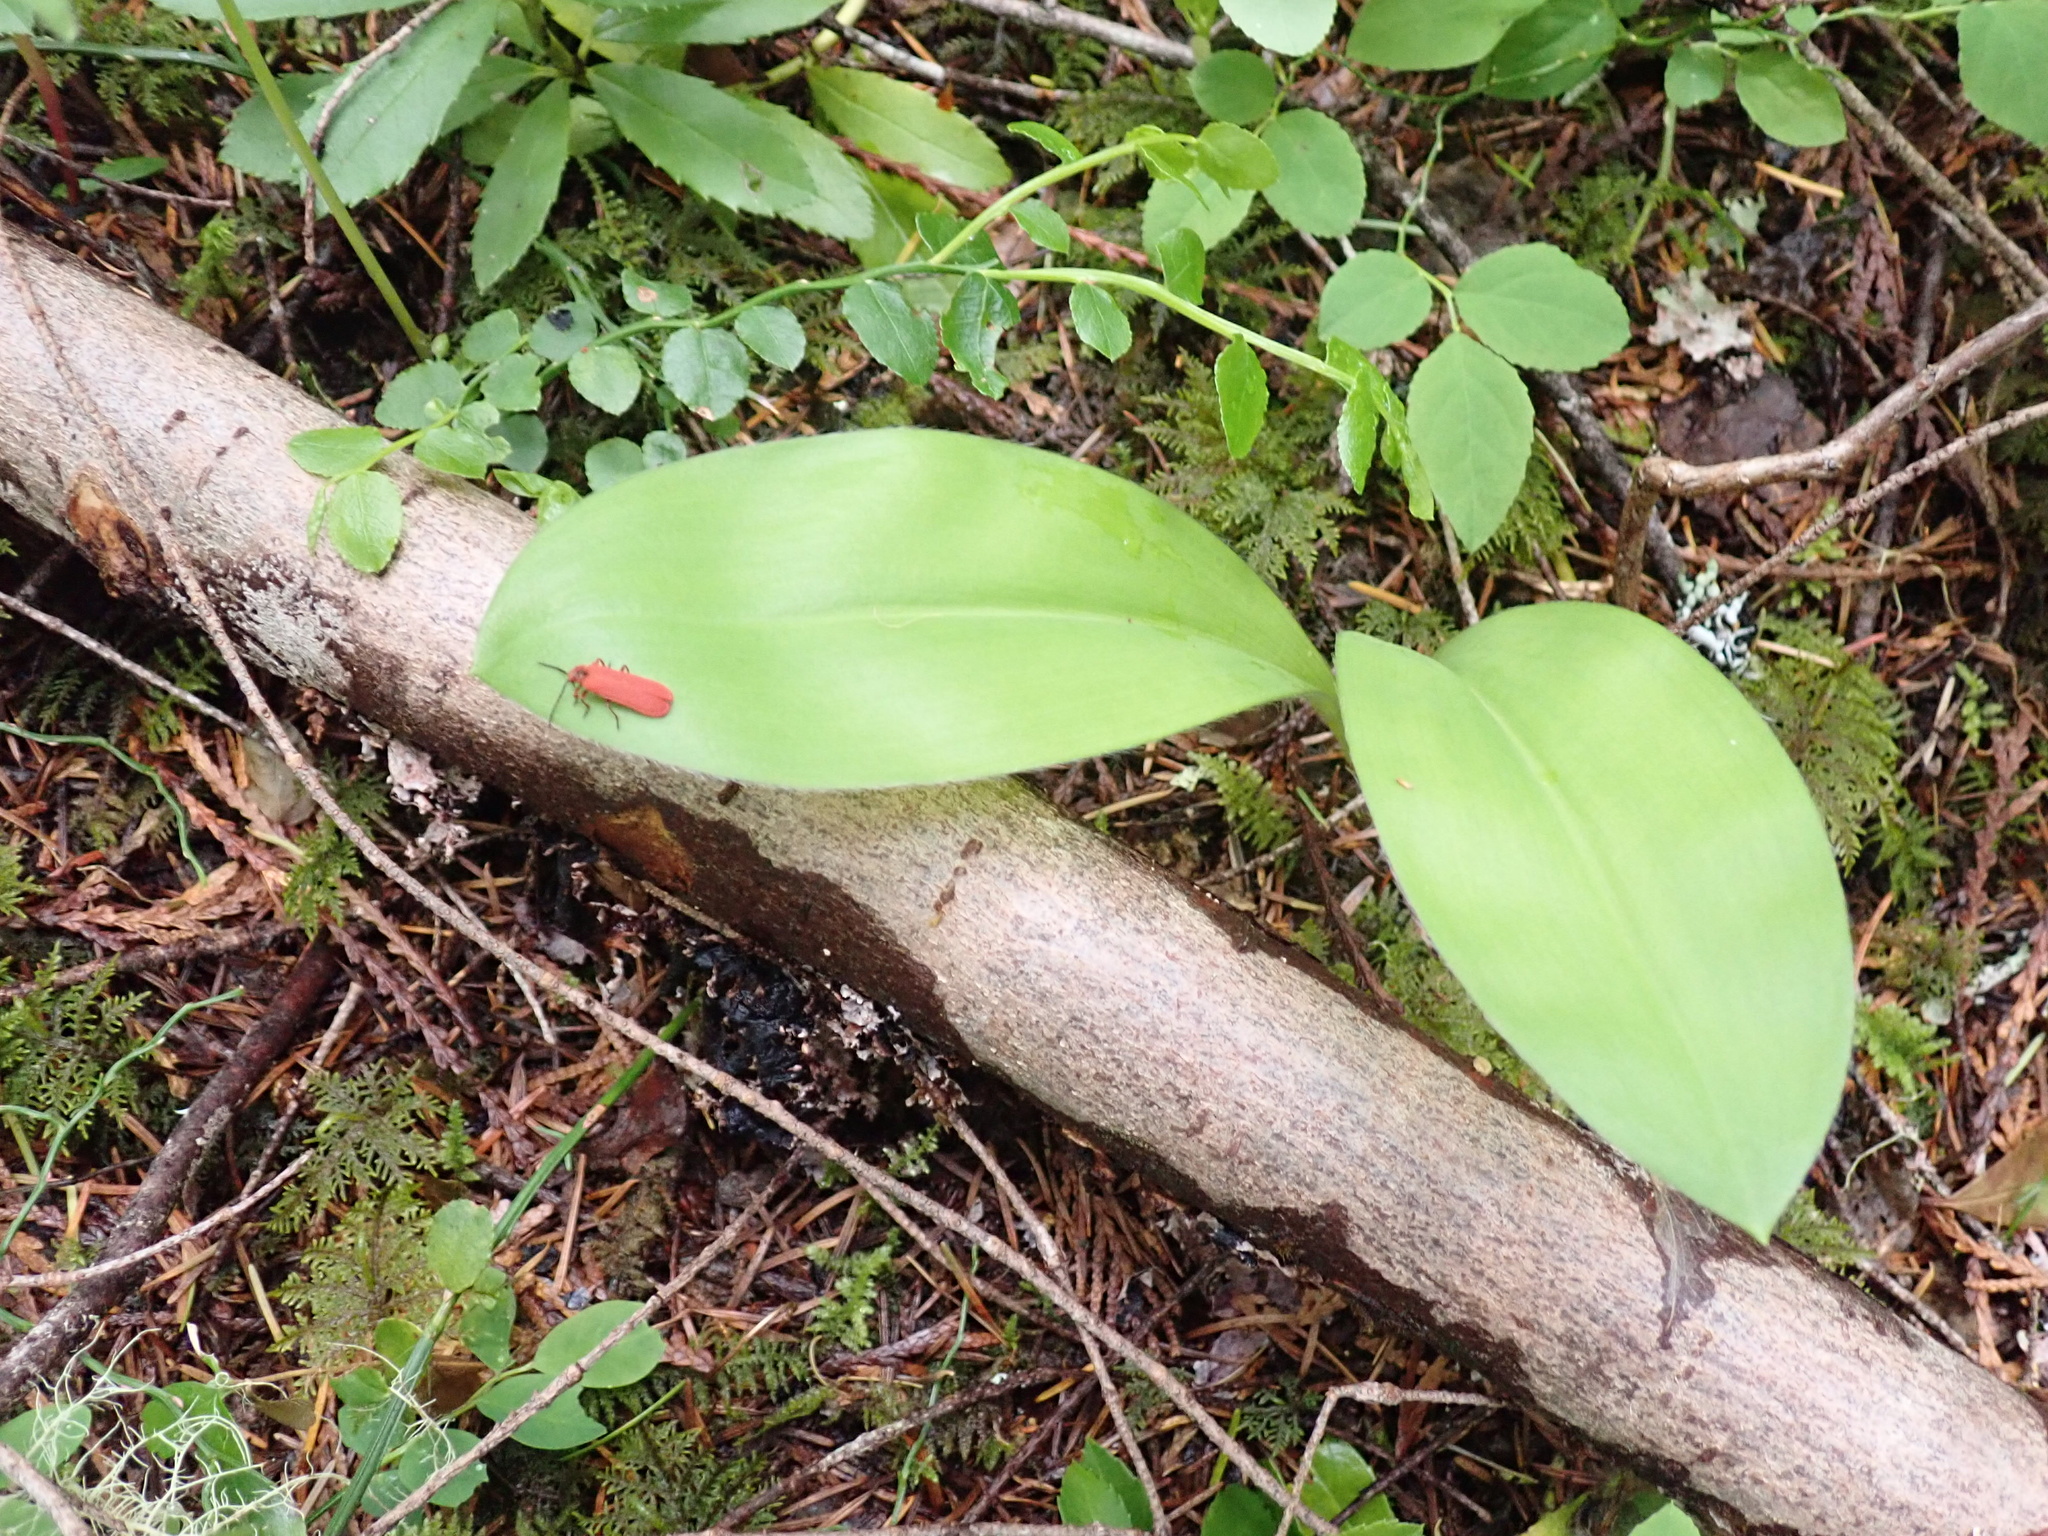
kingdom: Animalia
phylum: Arthropoda
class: Insecta
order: Coleoptera
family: Lycidae
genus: Dictyoptera
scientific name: Dictyoptera simplicipes
